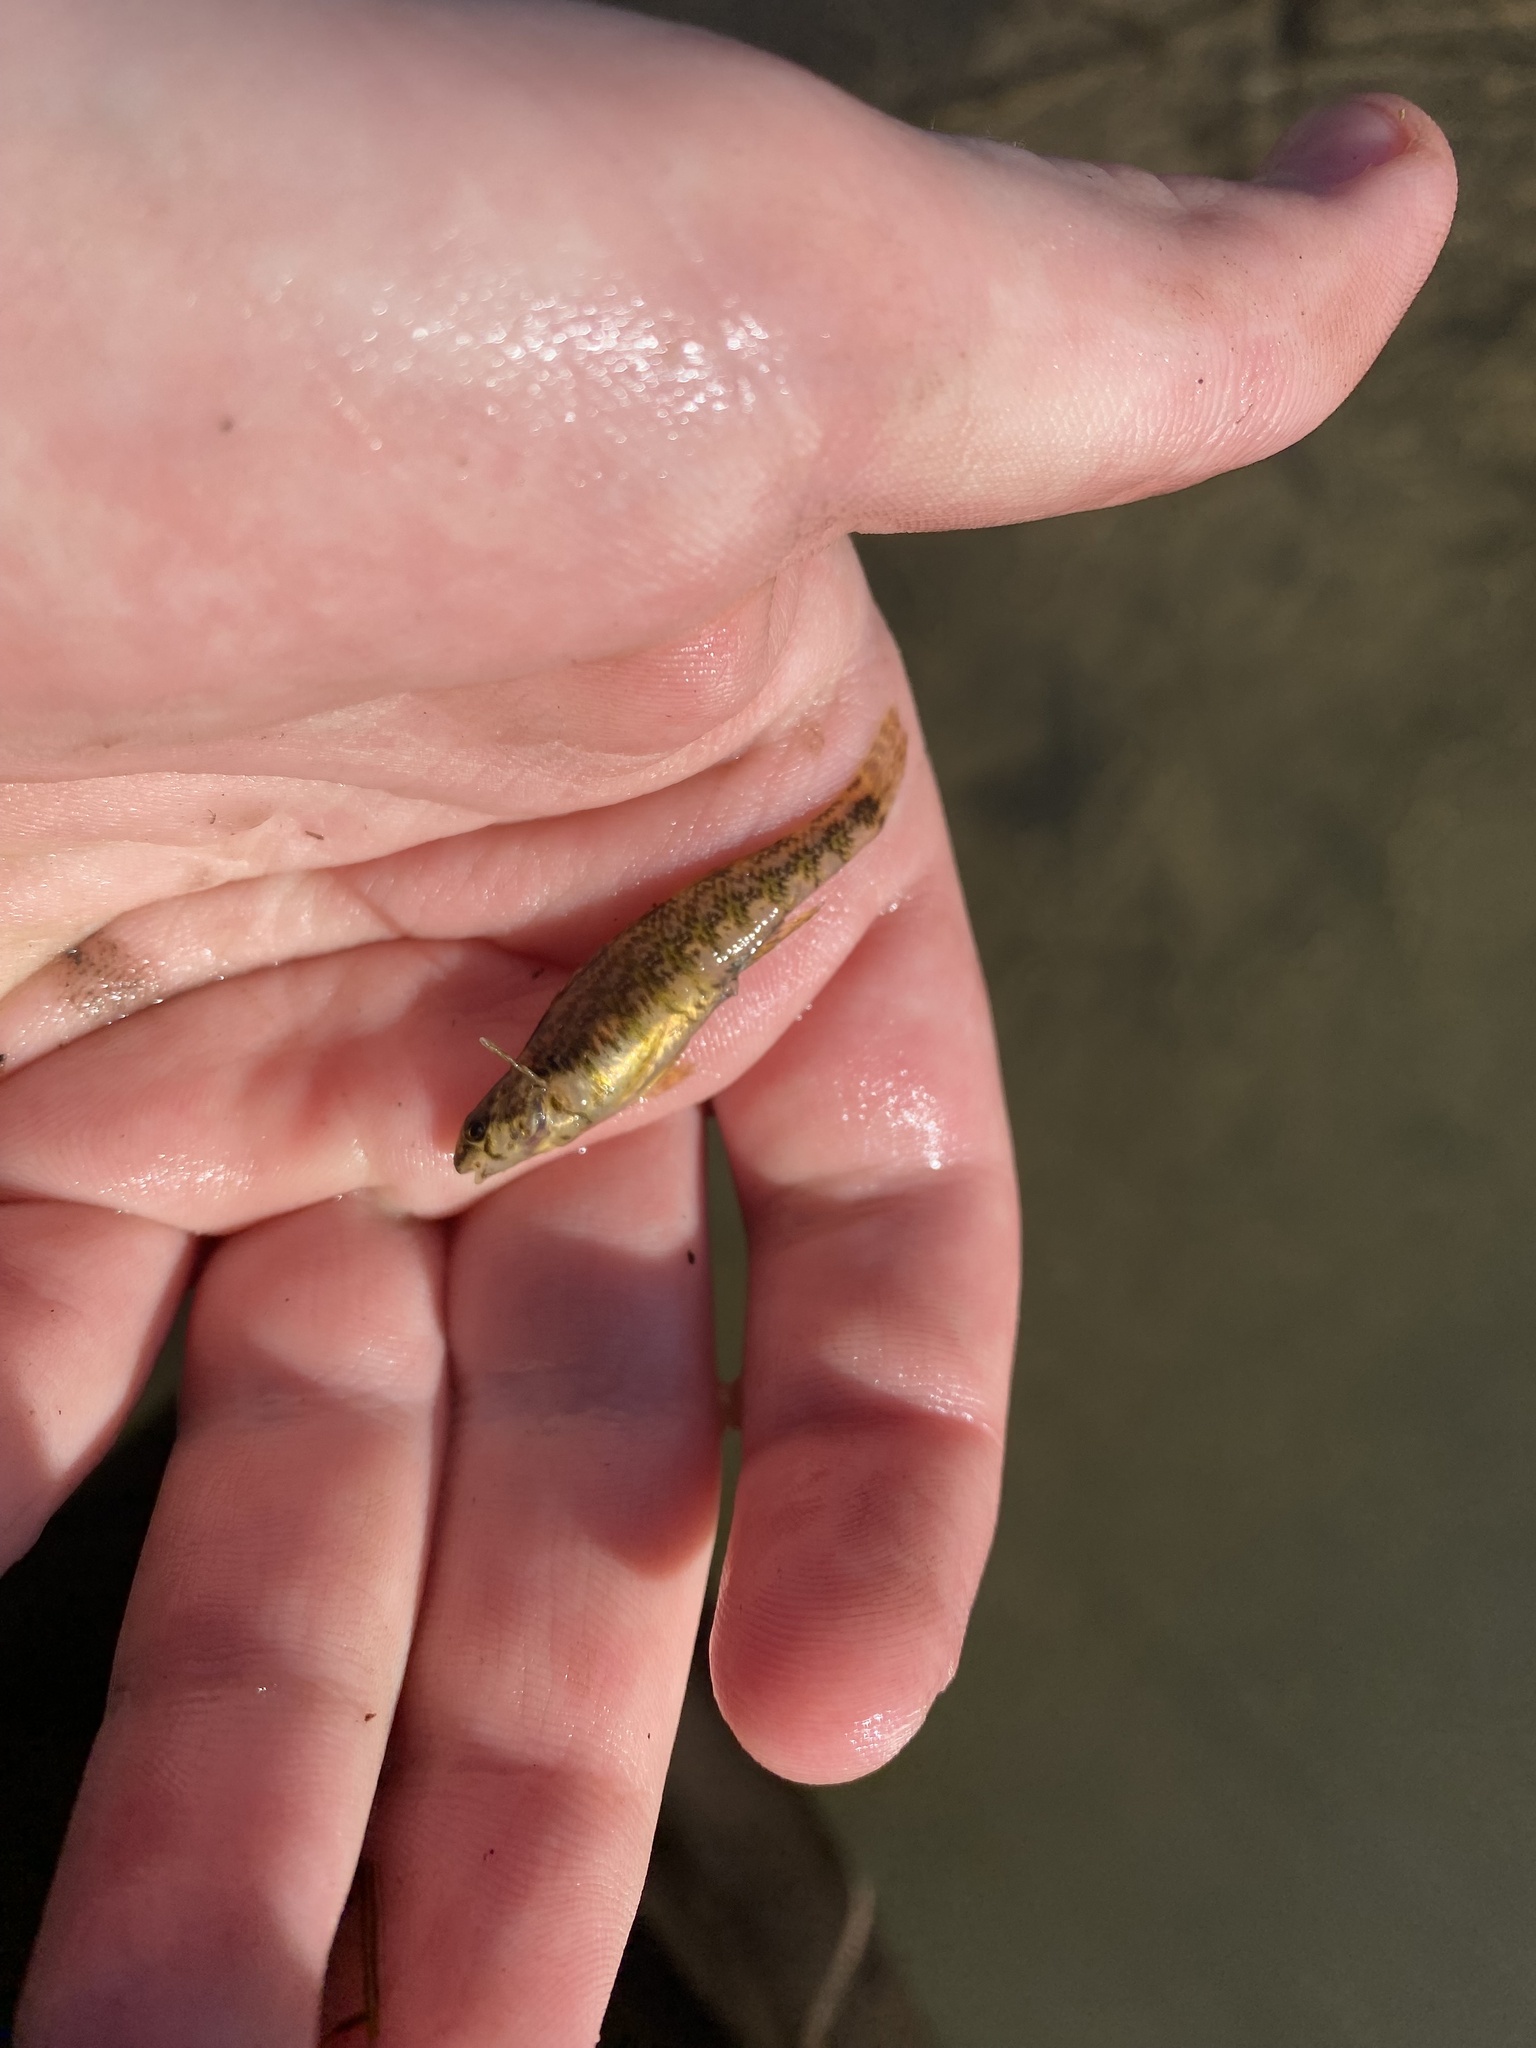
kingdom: Animalia
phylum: Chordata
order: Perciformes
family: Percidae
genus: Etheostoma
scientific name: Etheostoma zonale
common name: Banded darter
